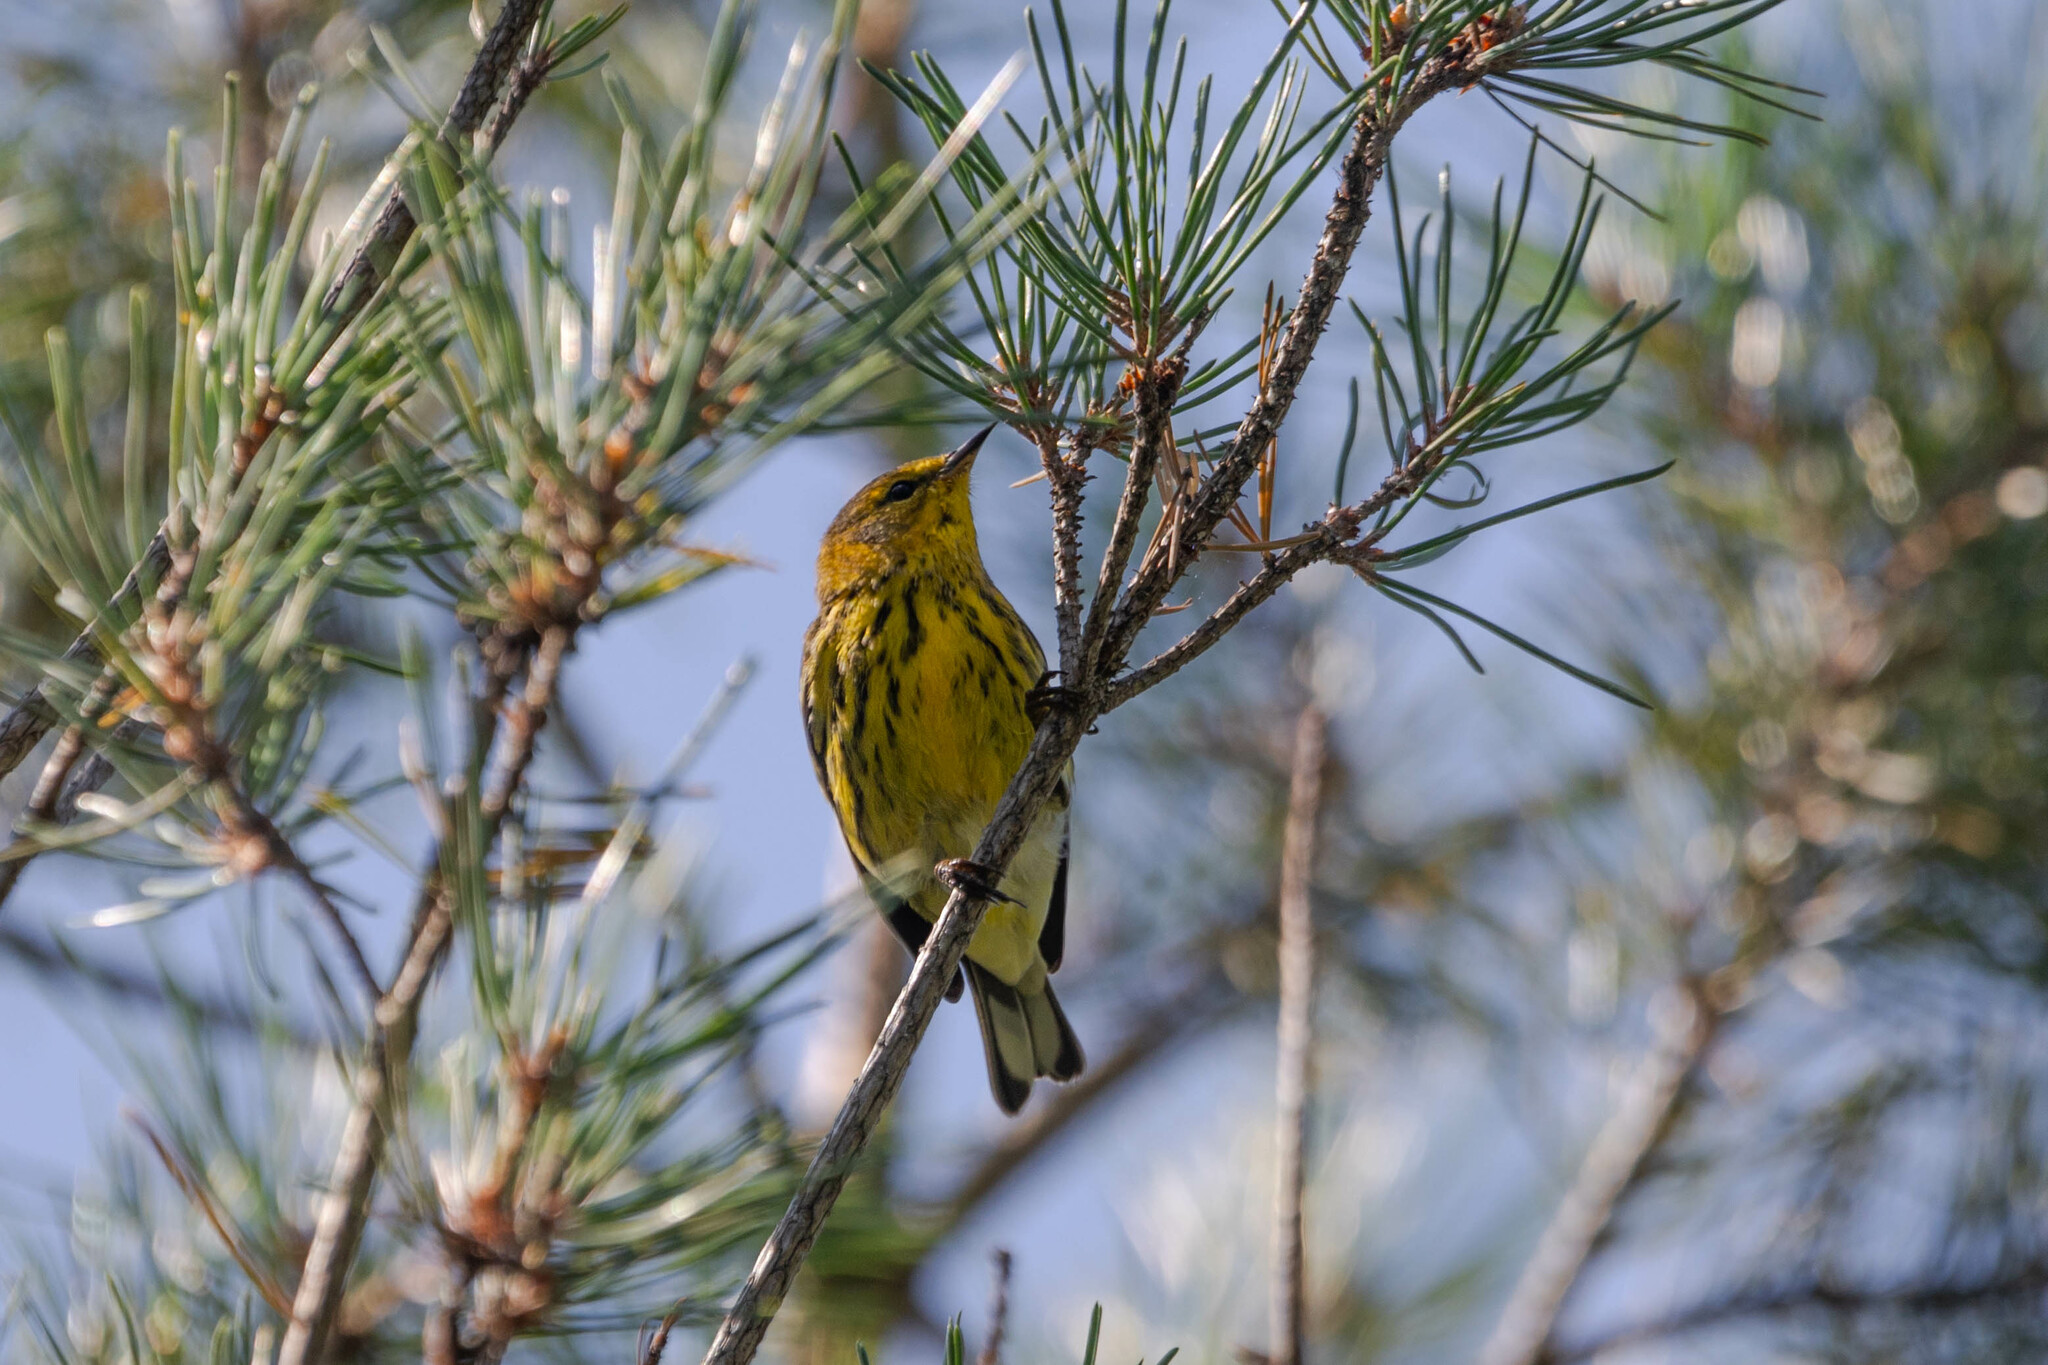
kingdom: Animalia
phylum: Chordata
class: Aves
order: Passeriformes
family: Parulidae
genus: Setophaga
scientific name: Setophaga tigrina
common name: Cape may warbler
